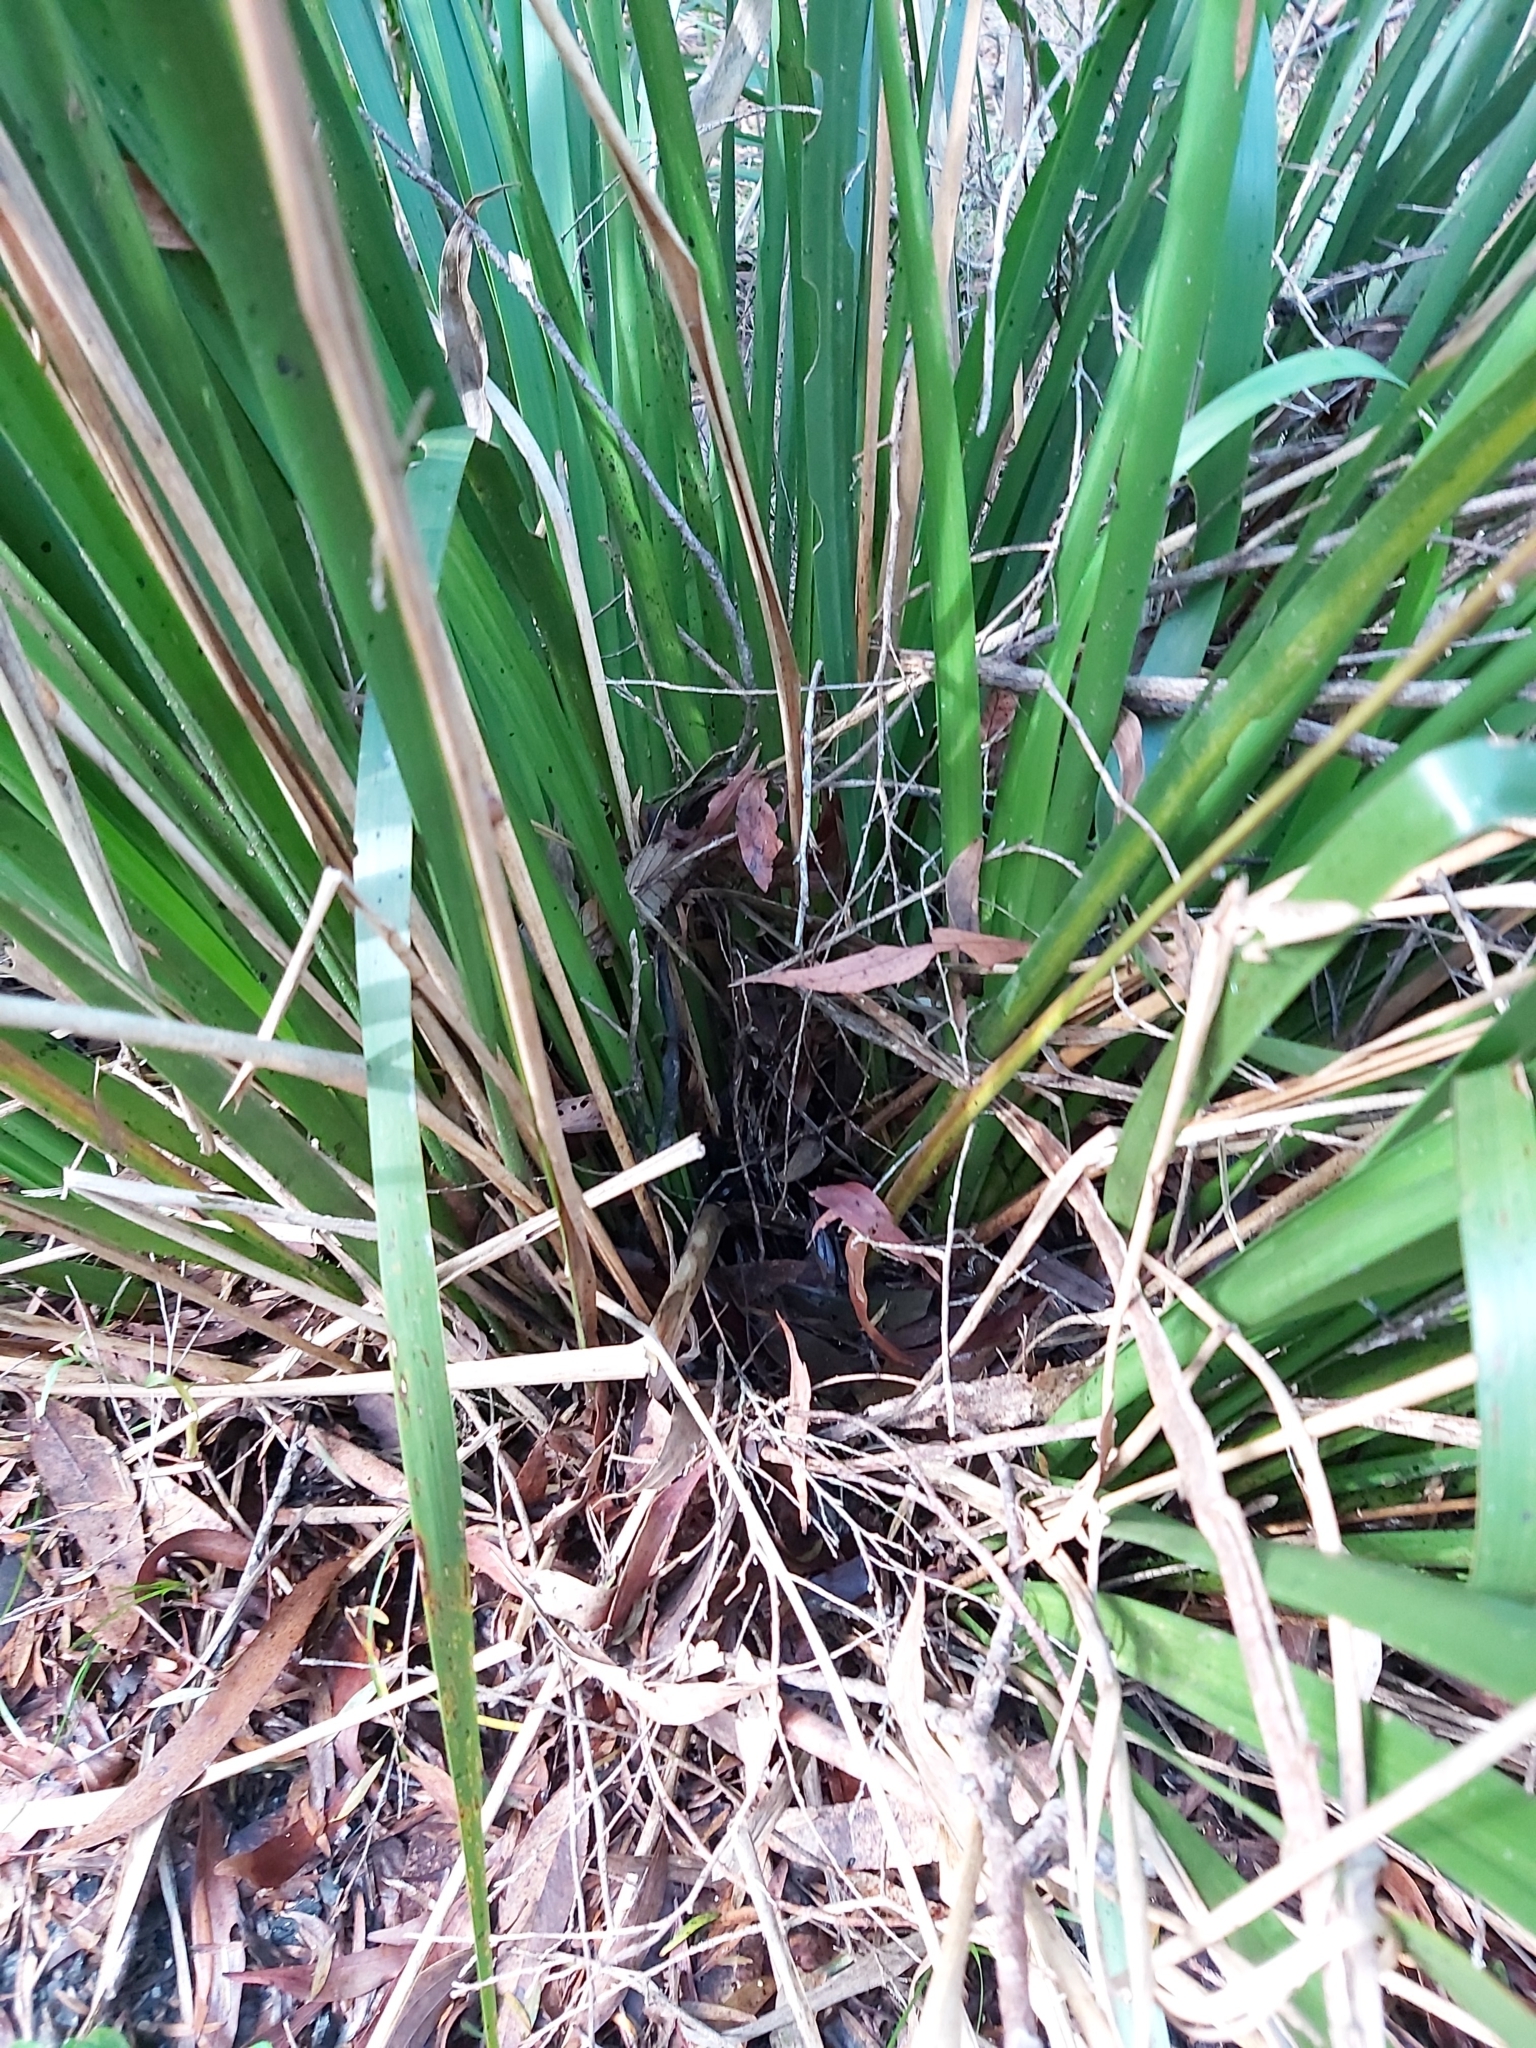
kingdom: Plantae
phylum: Tracheophyta
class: Liliopsida
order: Asparagales
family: Asparagaceae
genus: Lomandra
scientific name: Lomandra longifolia
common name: Longleaf mat-rush
